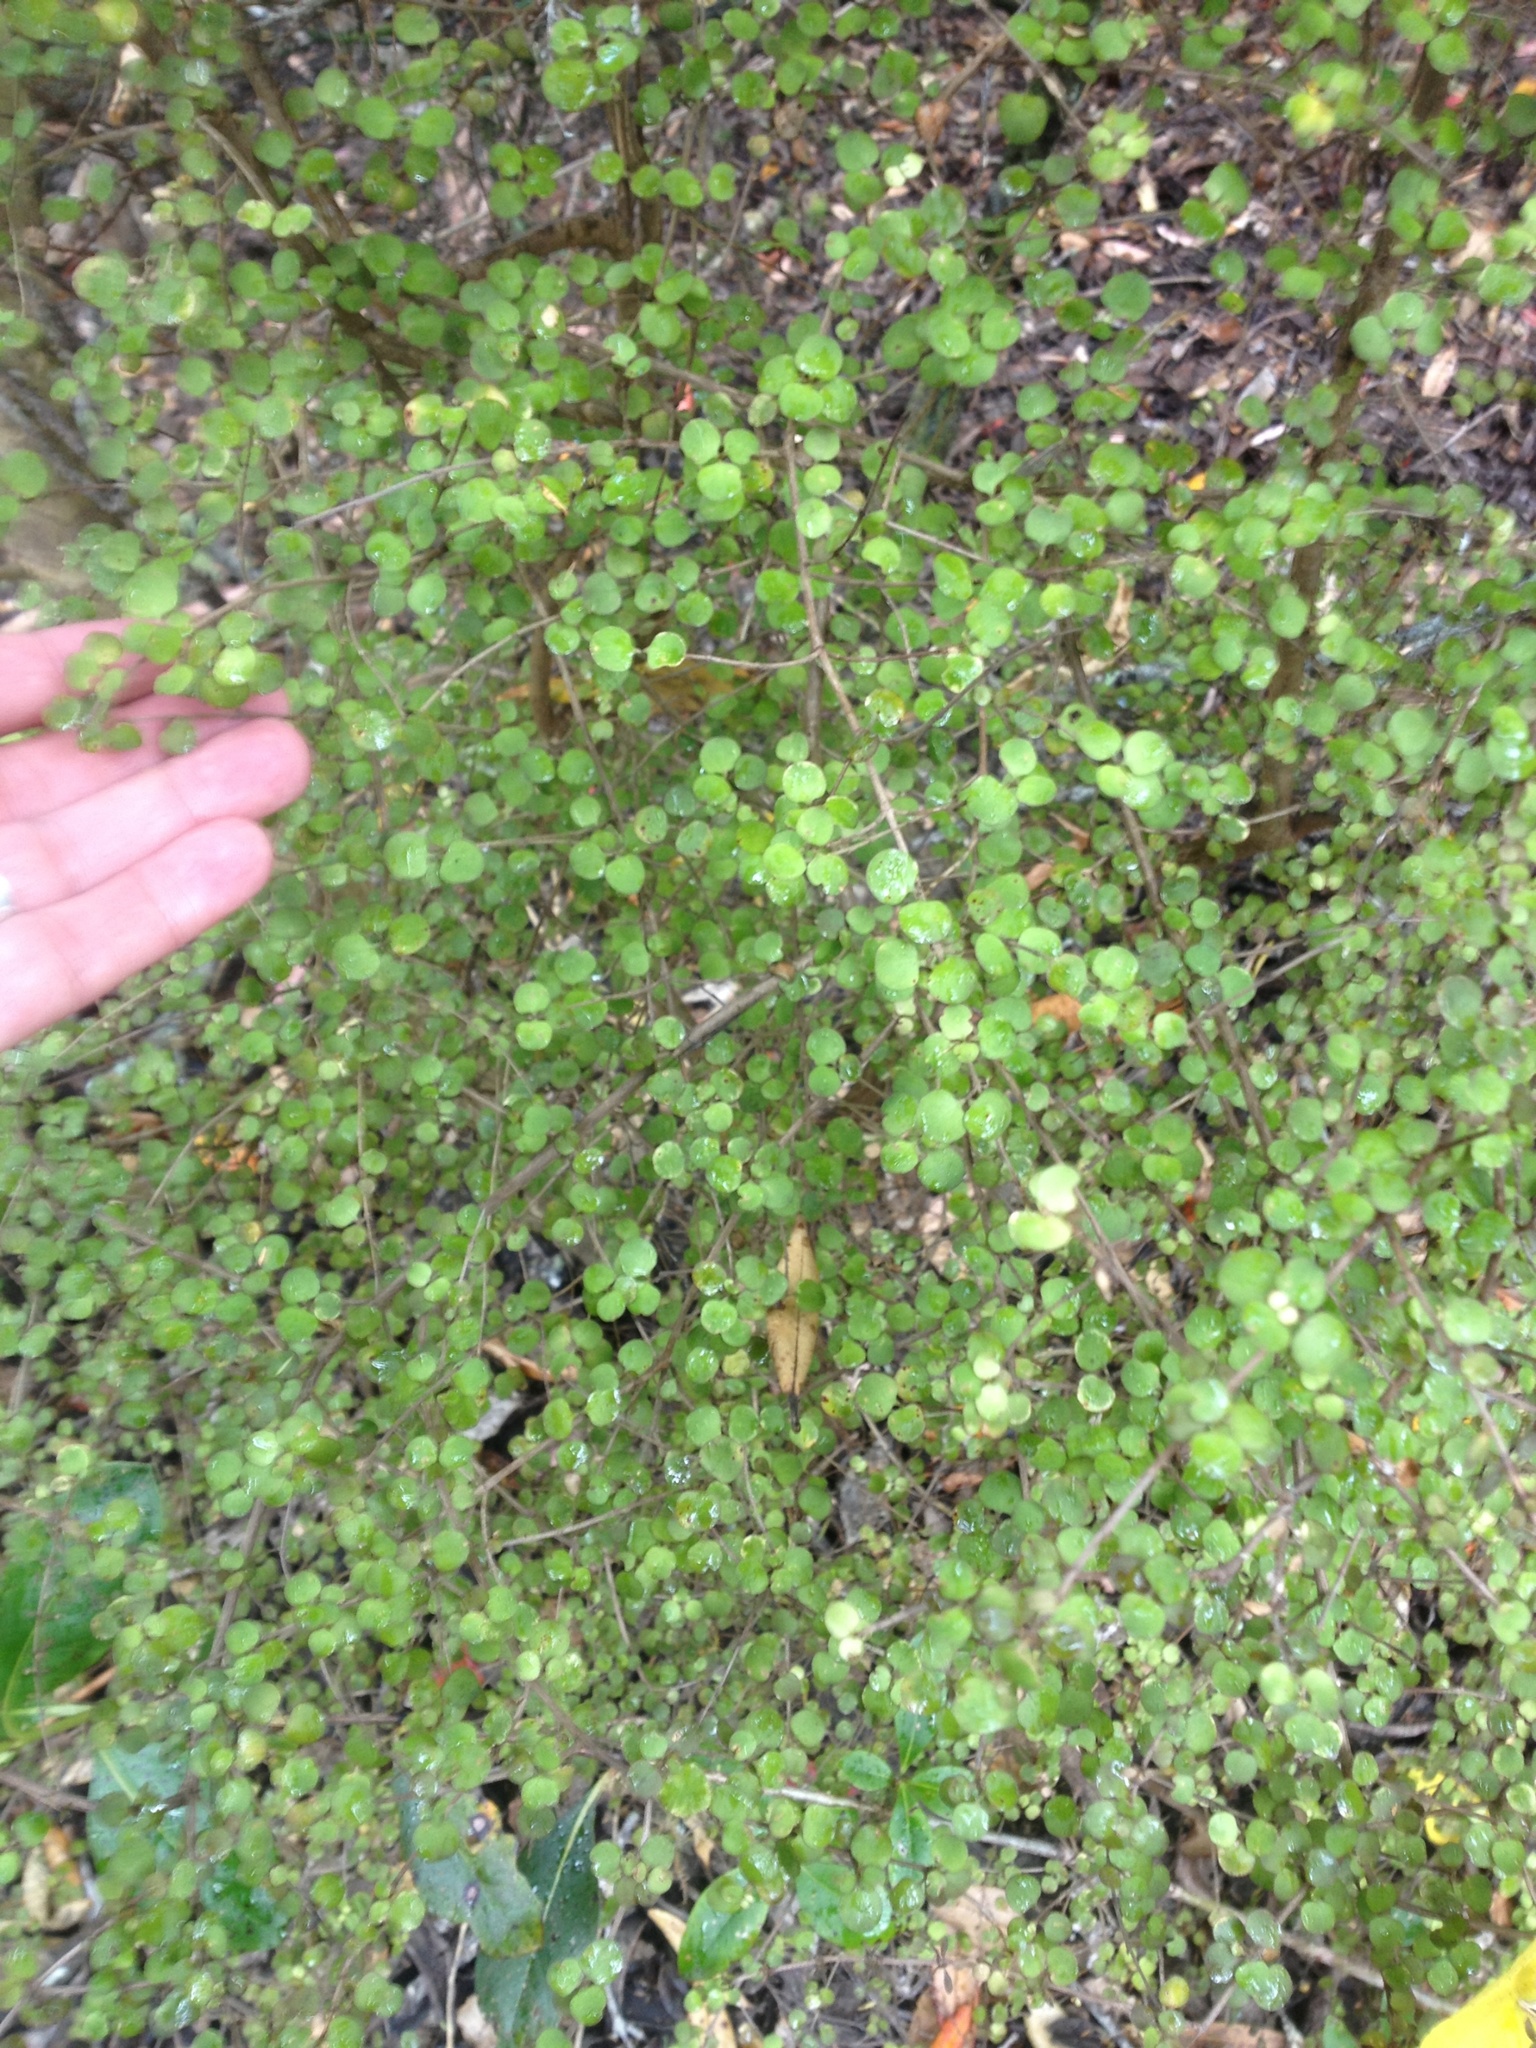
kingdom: Plantae
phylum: Tracheophyta
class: Magnoliopsida
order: Gentianales
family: Rubiaceae
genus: Coprosma
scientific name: Coprosma rhamnoides
